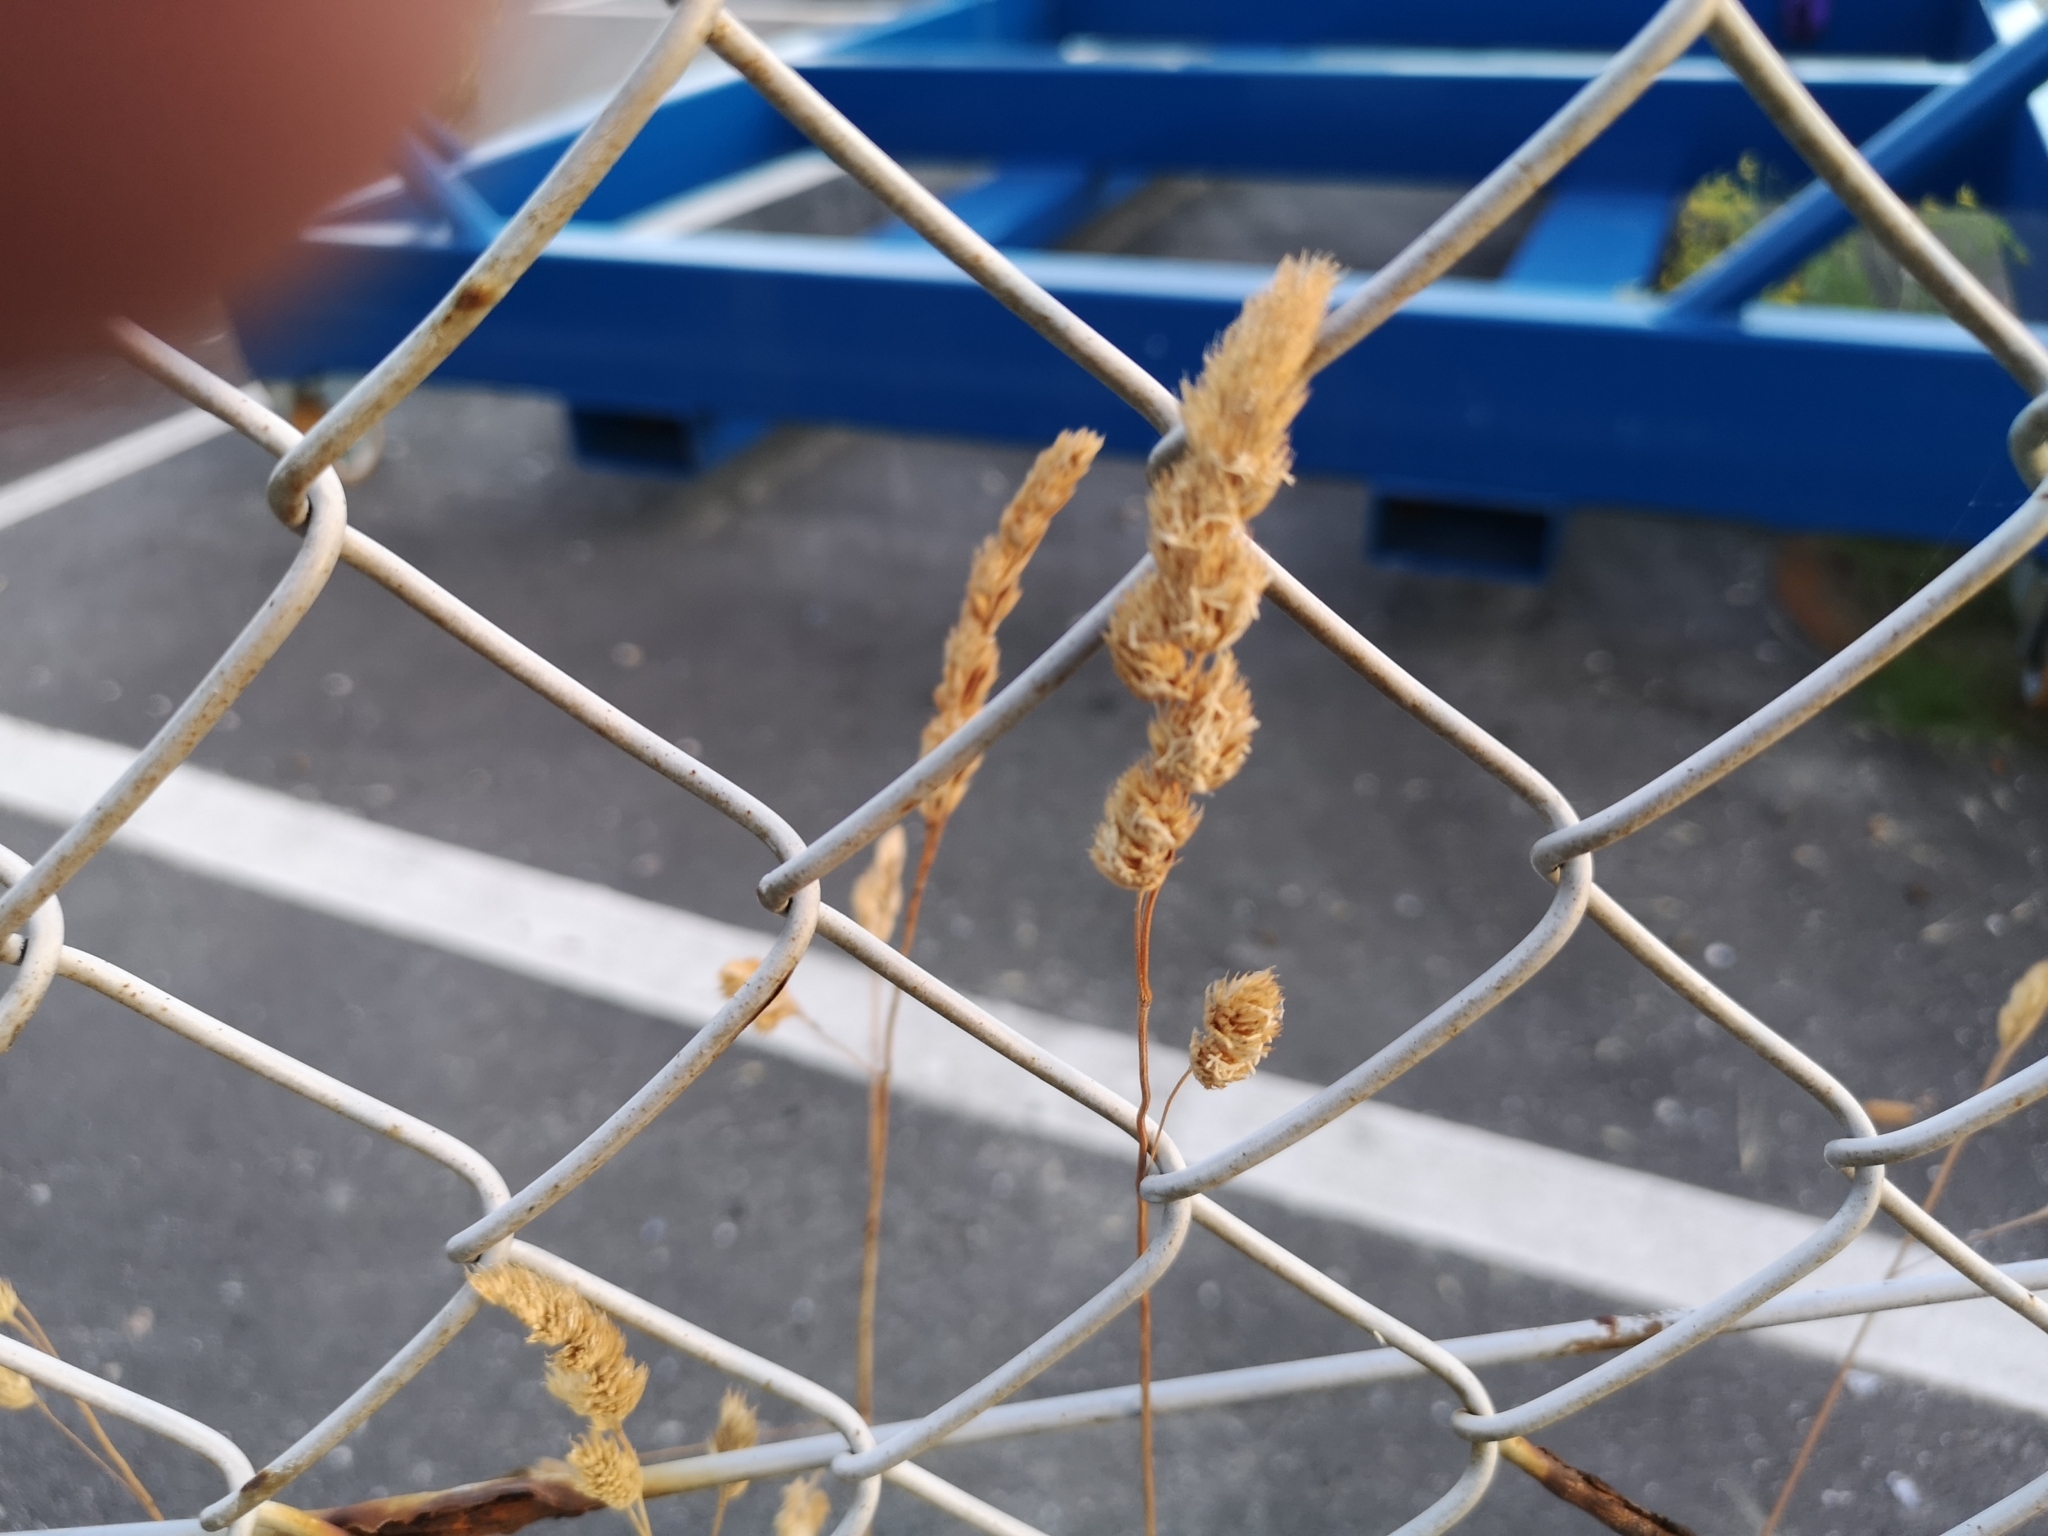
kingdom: Plantae
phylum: Tracheophyta
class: Liliopsida
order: Poales
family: Poaceae
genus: Dactylis
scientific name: Dactylis glomerata
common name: Orchardgrass
